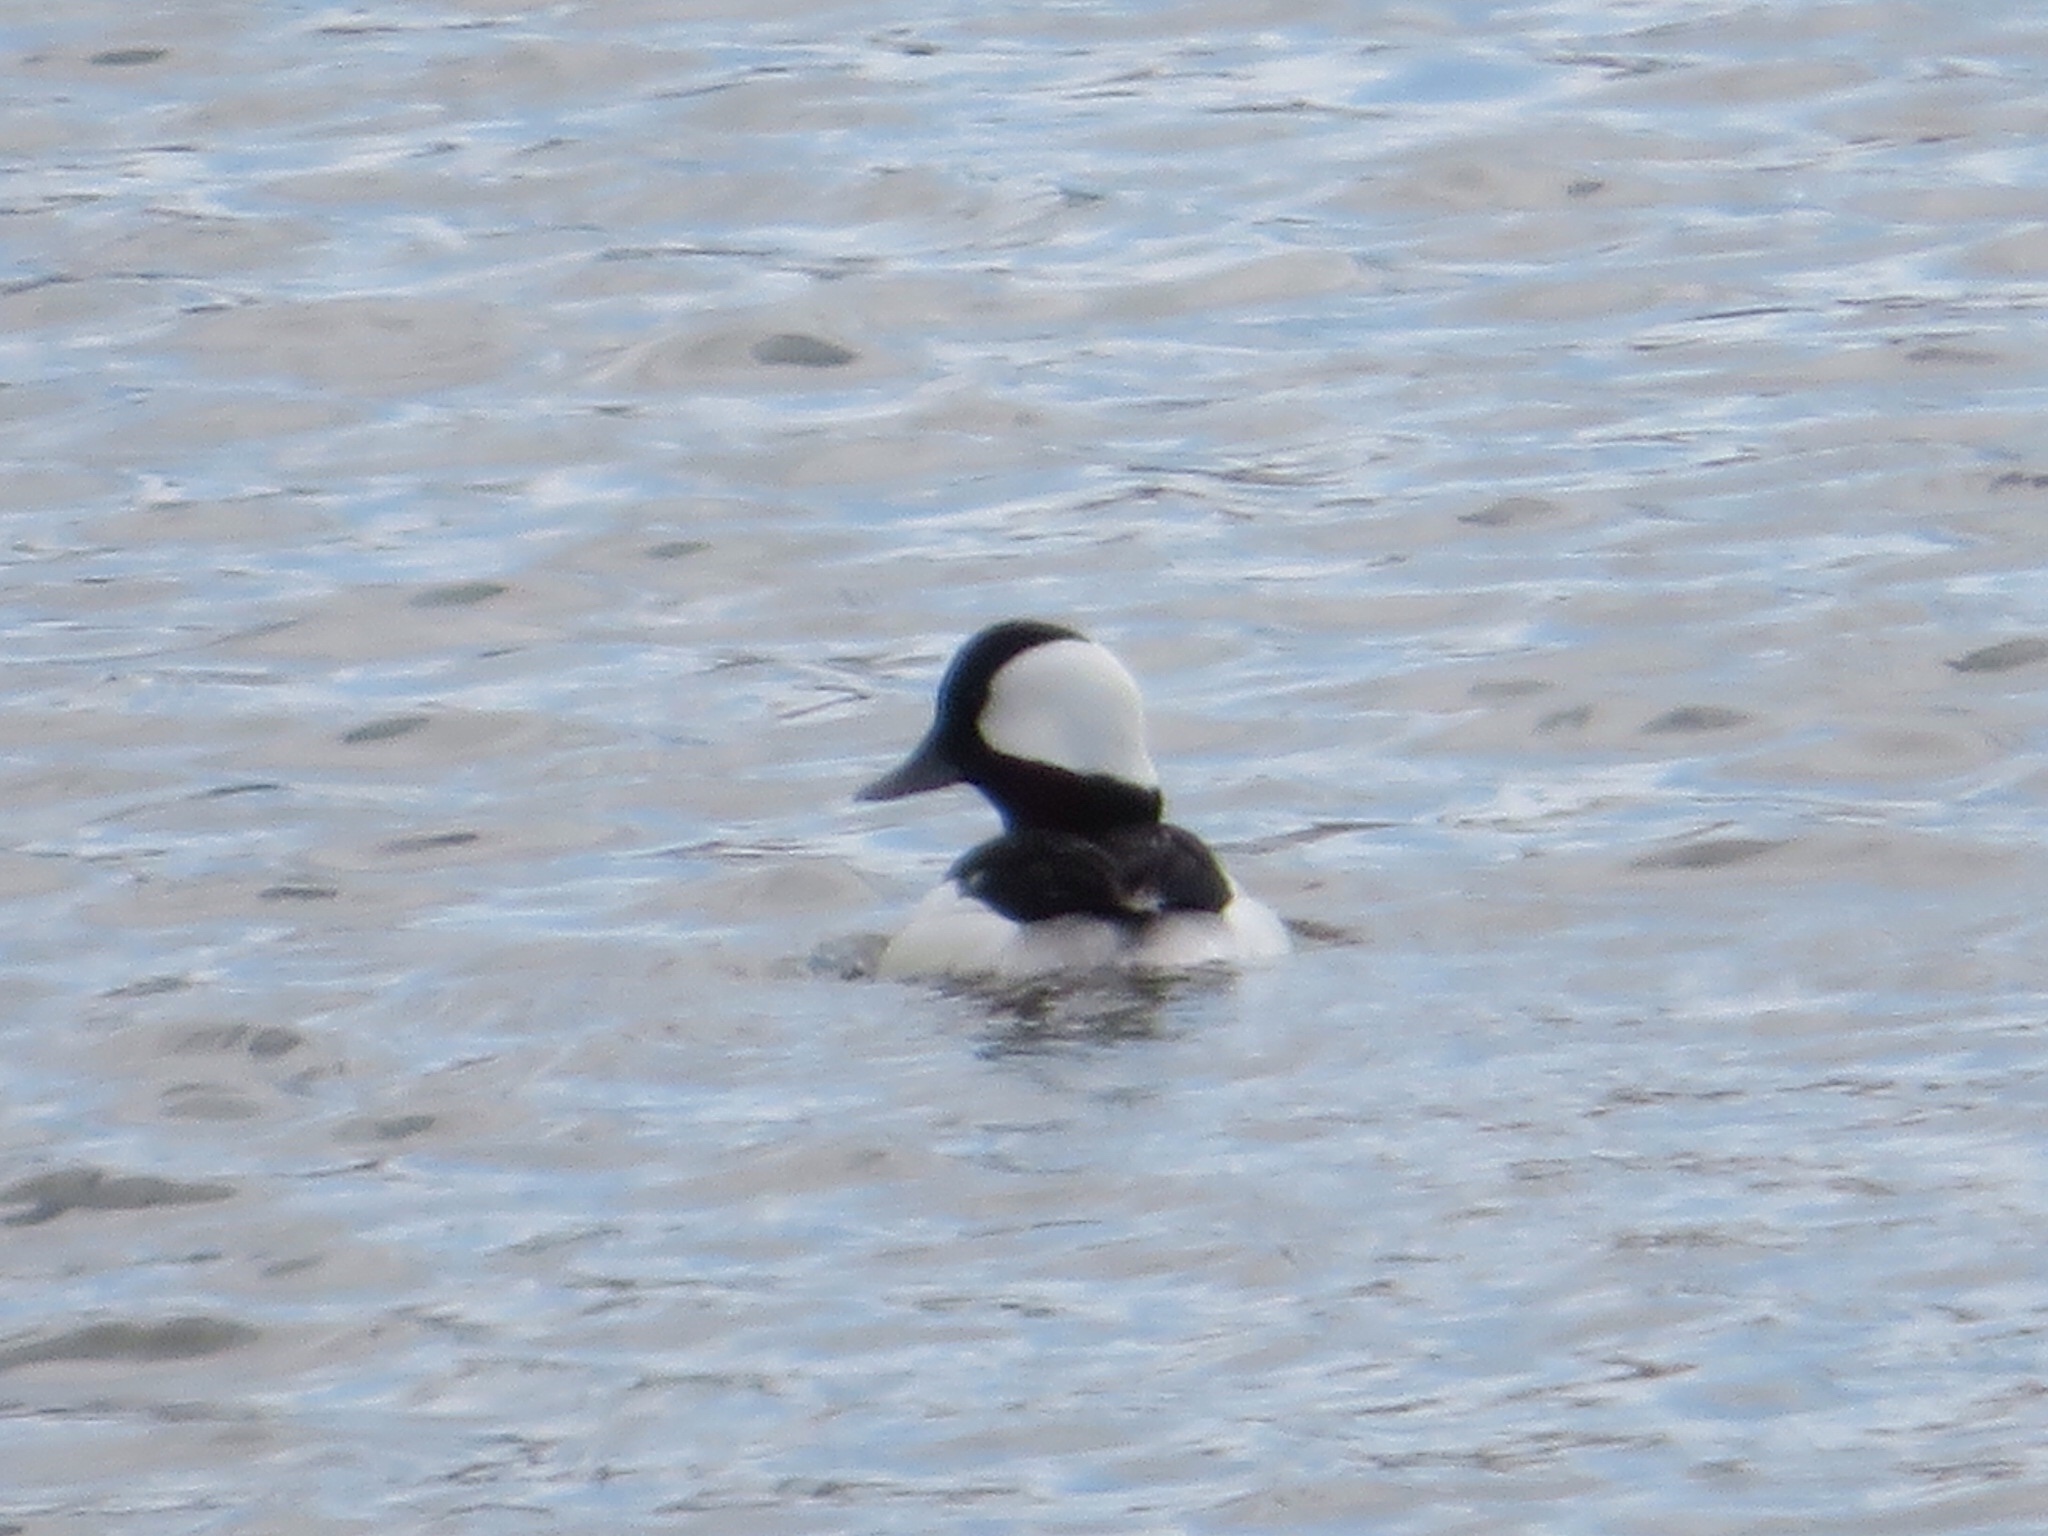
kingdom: Animalia
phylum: Chordata
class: Aves
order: Anseriformes
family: Anatidae
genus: Bucephala
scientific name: Bucephala albeola
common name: Bufflehead
